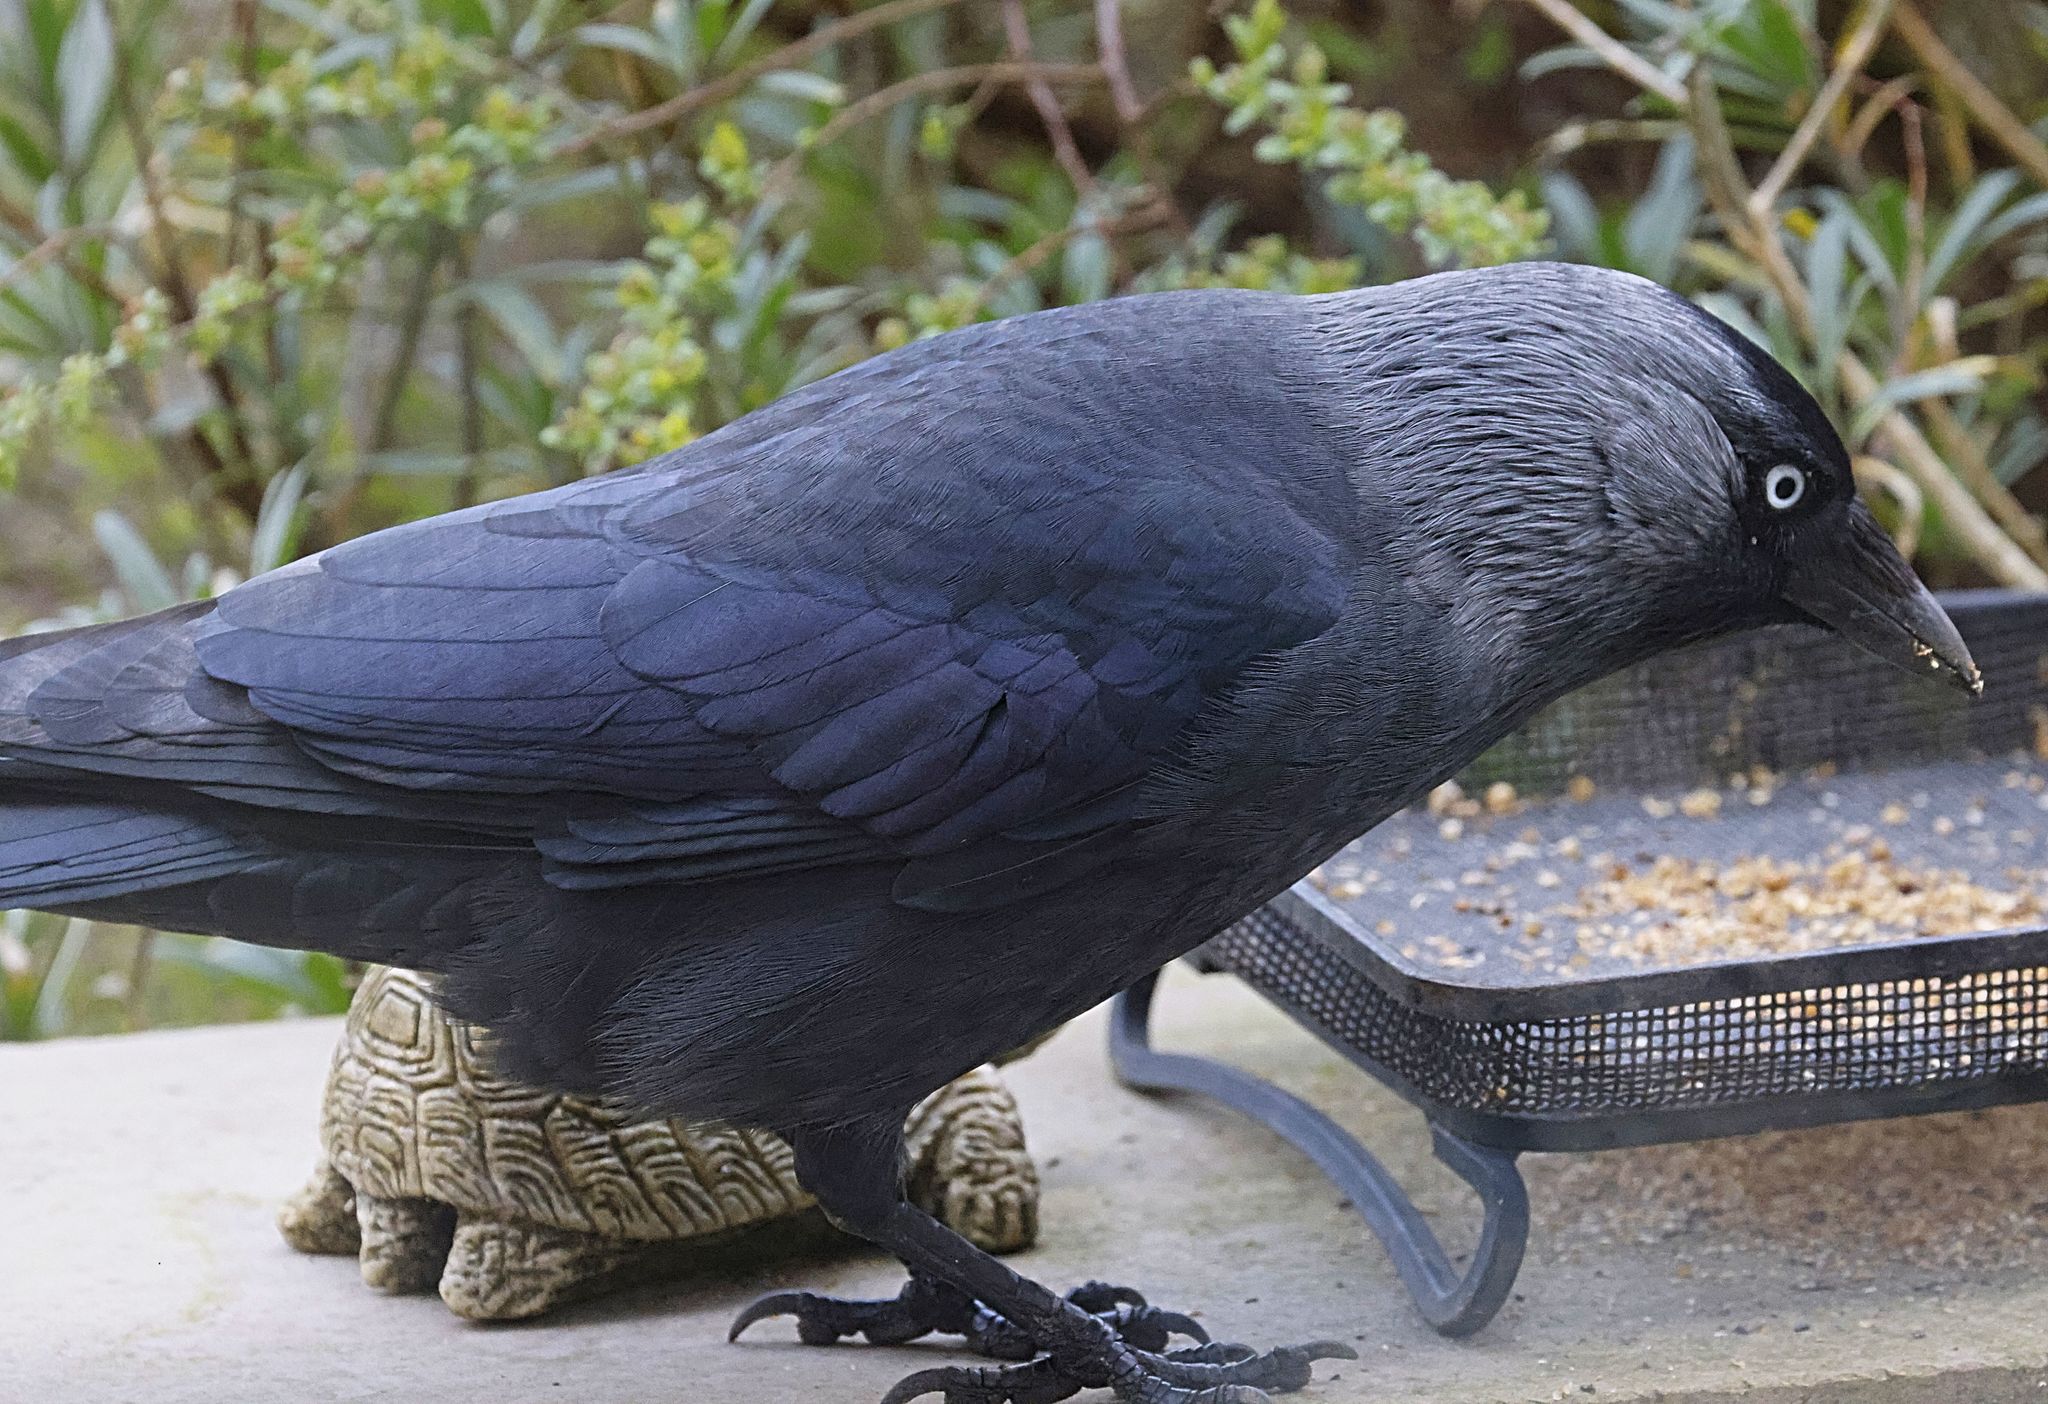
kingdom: Animalia
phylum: Chordata
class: Aves
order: Passeriformes
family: Corvidae
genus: Coloeus
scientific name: Coloeus monedula
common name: Western jackdaw
